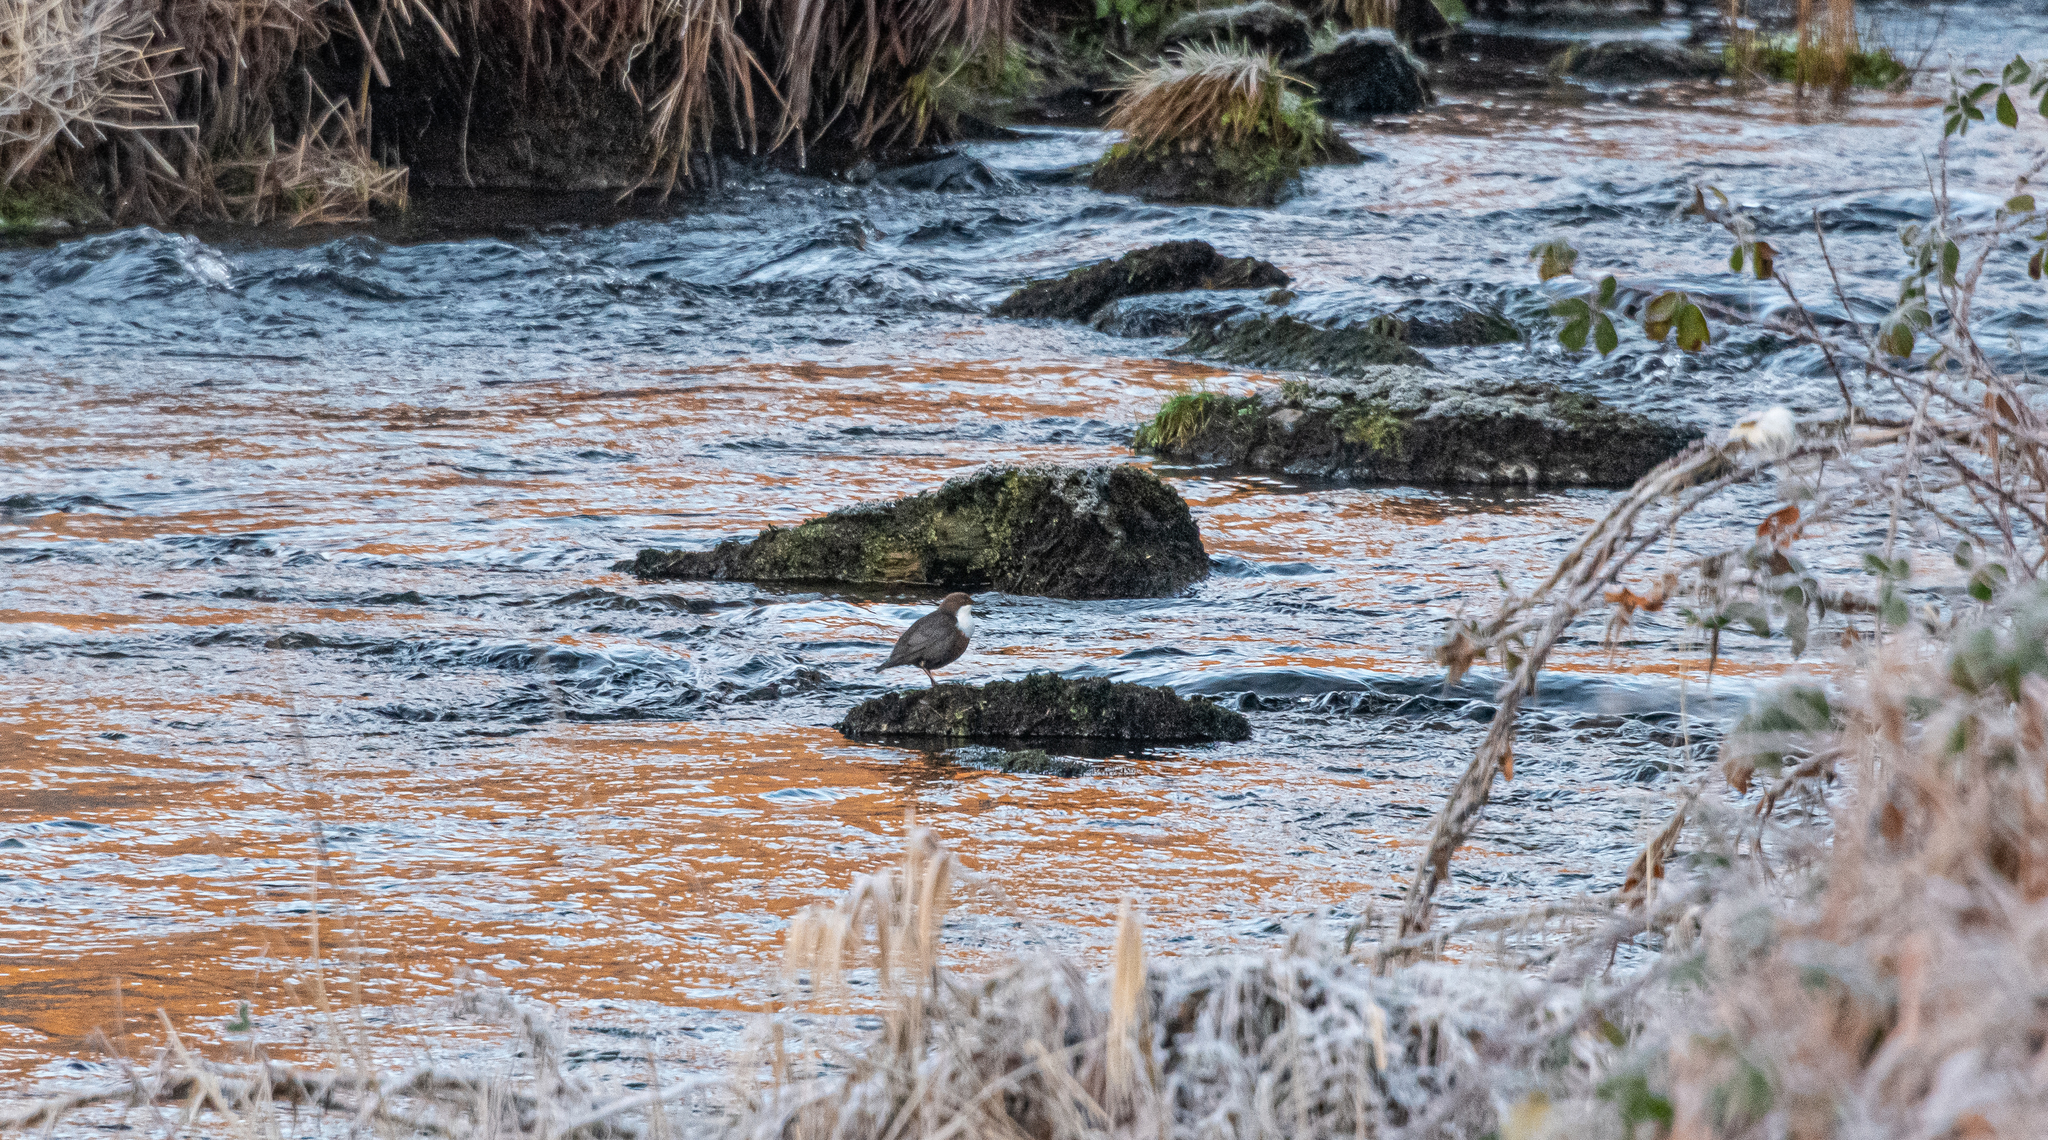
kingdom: Animalia
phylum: Chordata
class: Aves
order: Passeriformes
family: Cinclidae
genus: Cinclus
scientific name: Cinclus cinclus
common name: White-throated dipper
